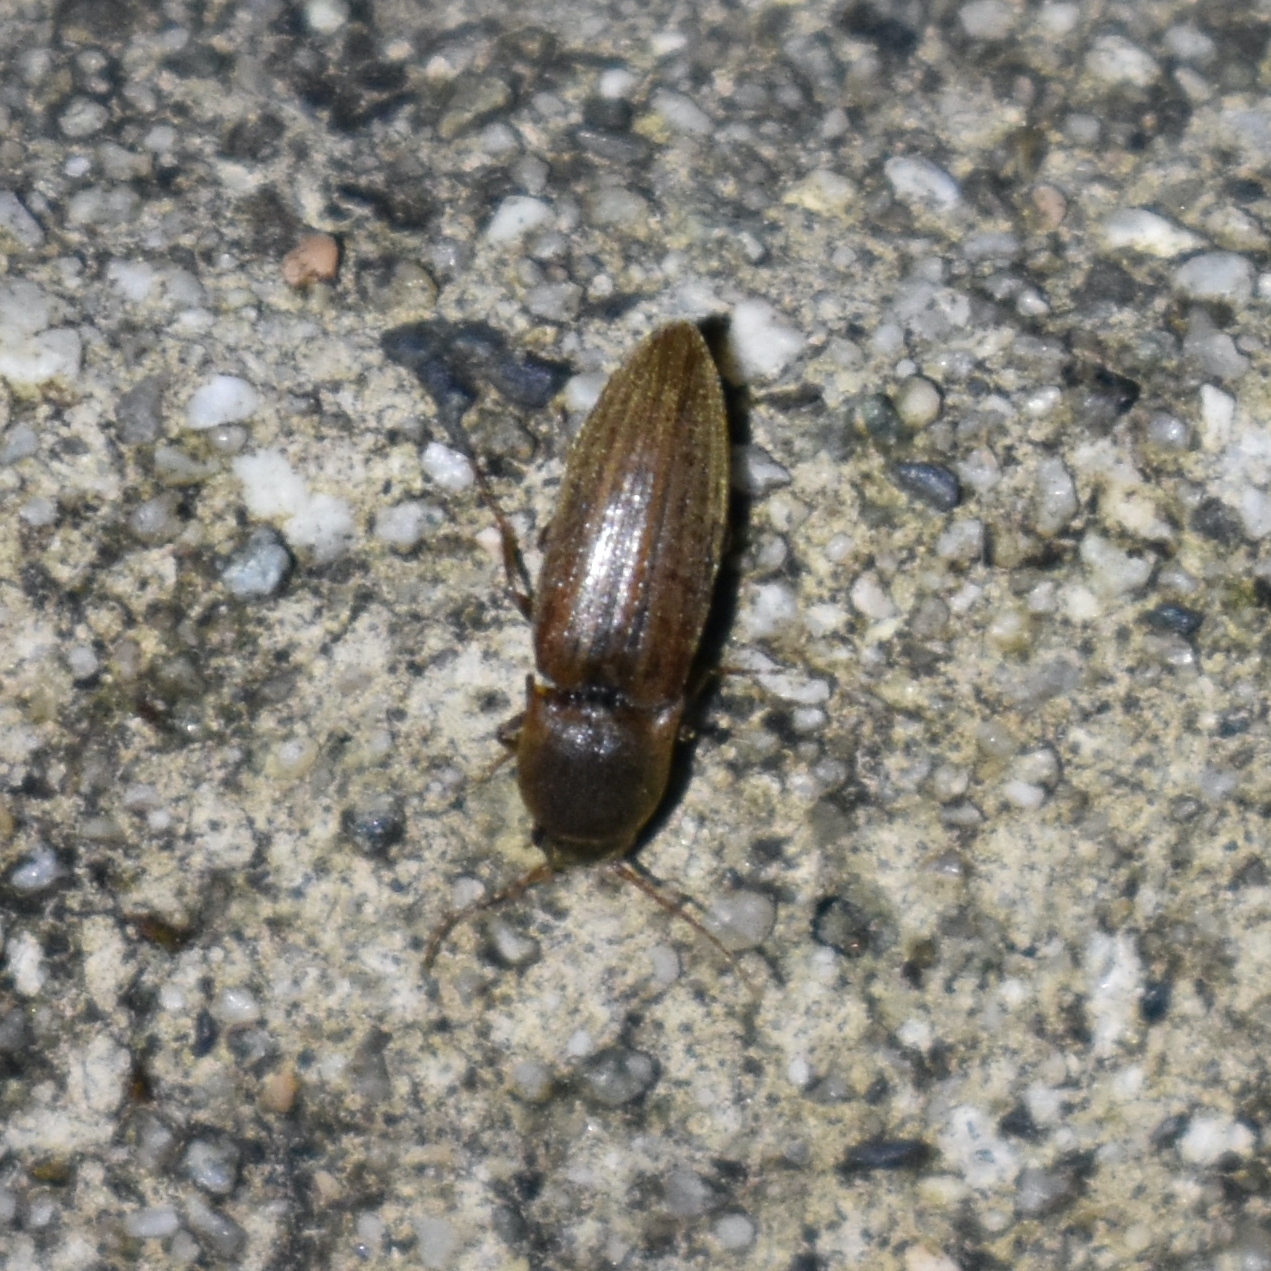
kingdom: Animalia
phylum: Arthropoda
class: Insecta
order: Coleoptera
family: Elateridae
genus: Agriotes
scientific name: Agriotes lineatus
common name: Lined click beetle
